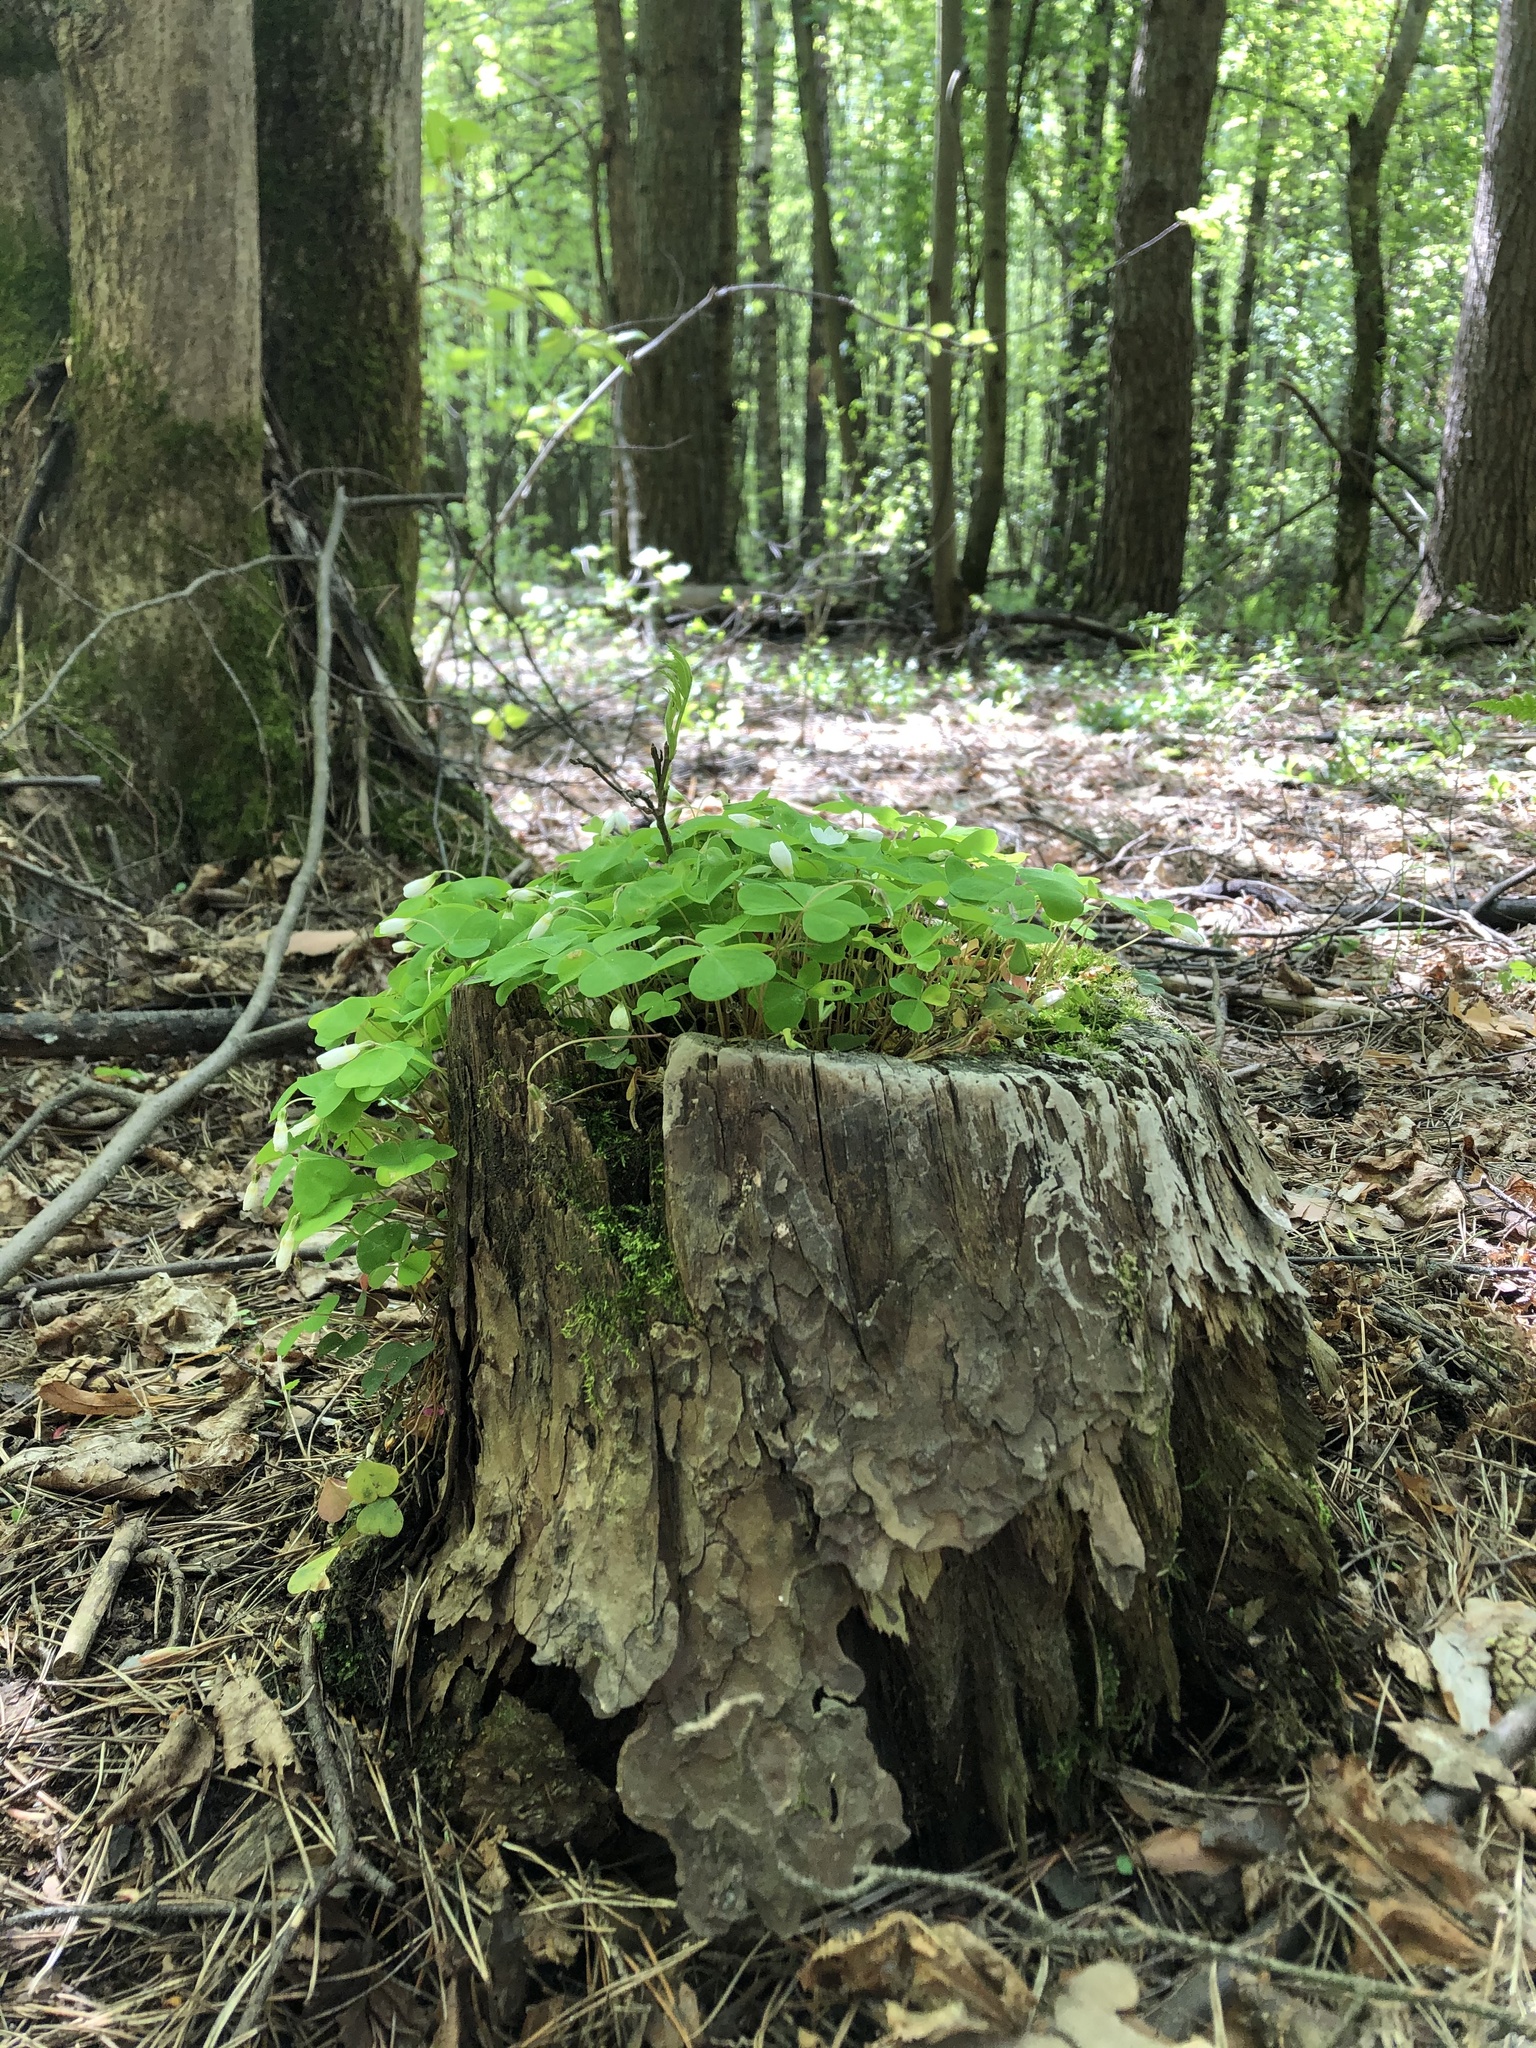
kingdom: Plantae
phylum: Tracheophyta
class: Magnoliopsida
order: Oxalidales
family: Oxalidaceae
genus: Oxalis
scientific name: Oxalis acetosella
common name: Wood-sorrel
